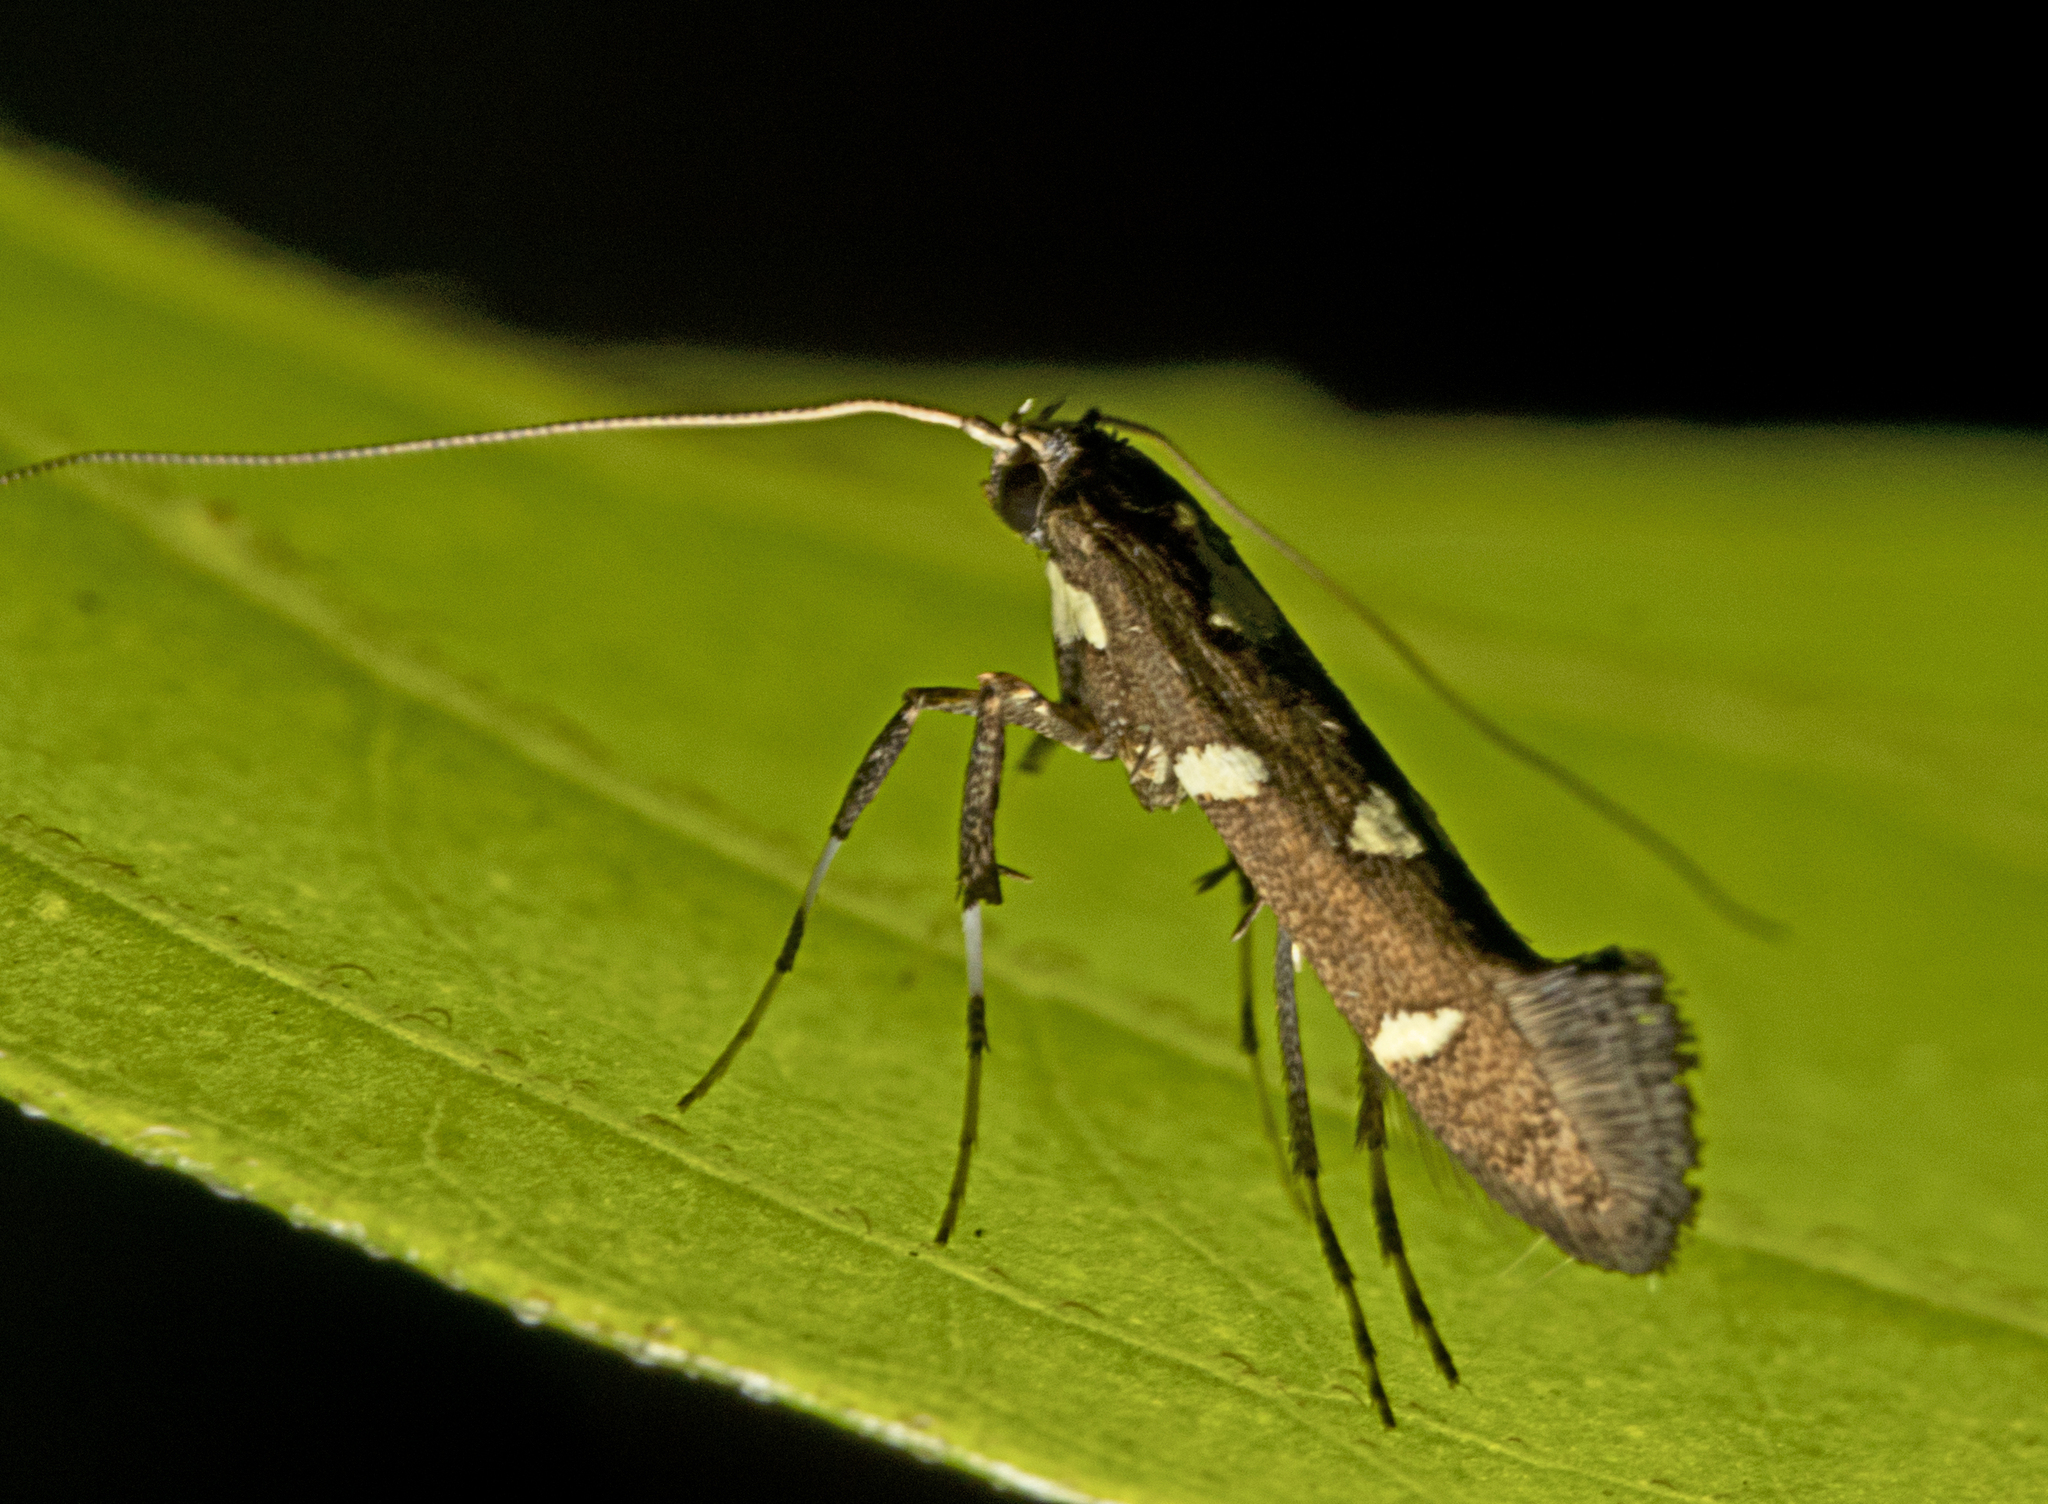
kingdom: Animalia
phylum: Arthropoda
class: Insecta
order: Lepidoptera
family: Gracillariidae
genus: Caloptilia
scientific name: Caloptilia adelosema
